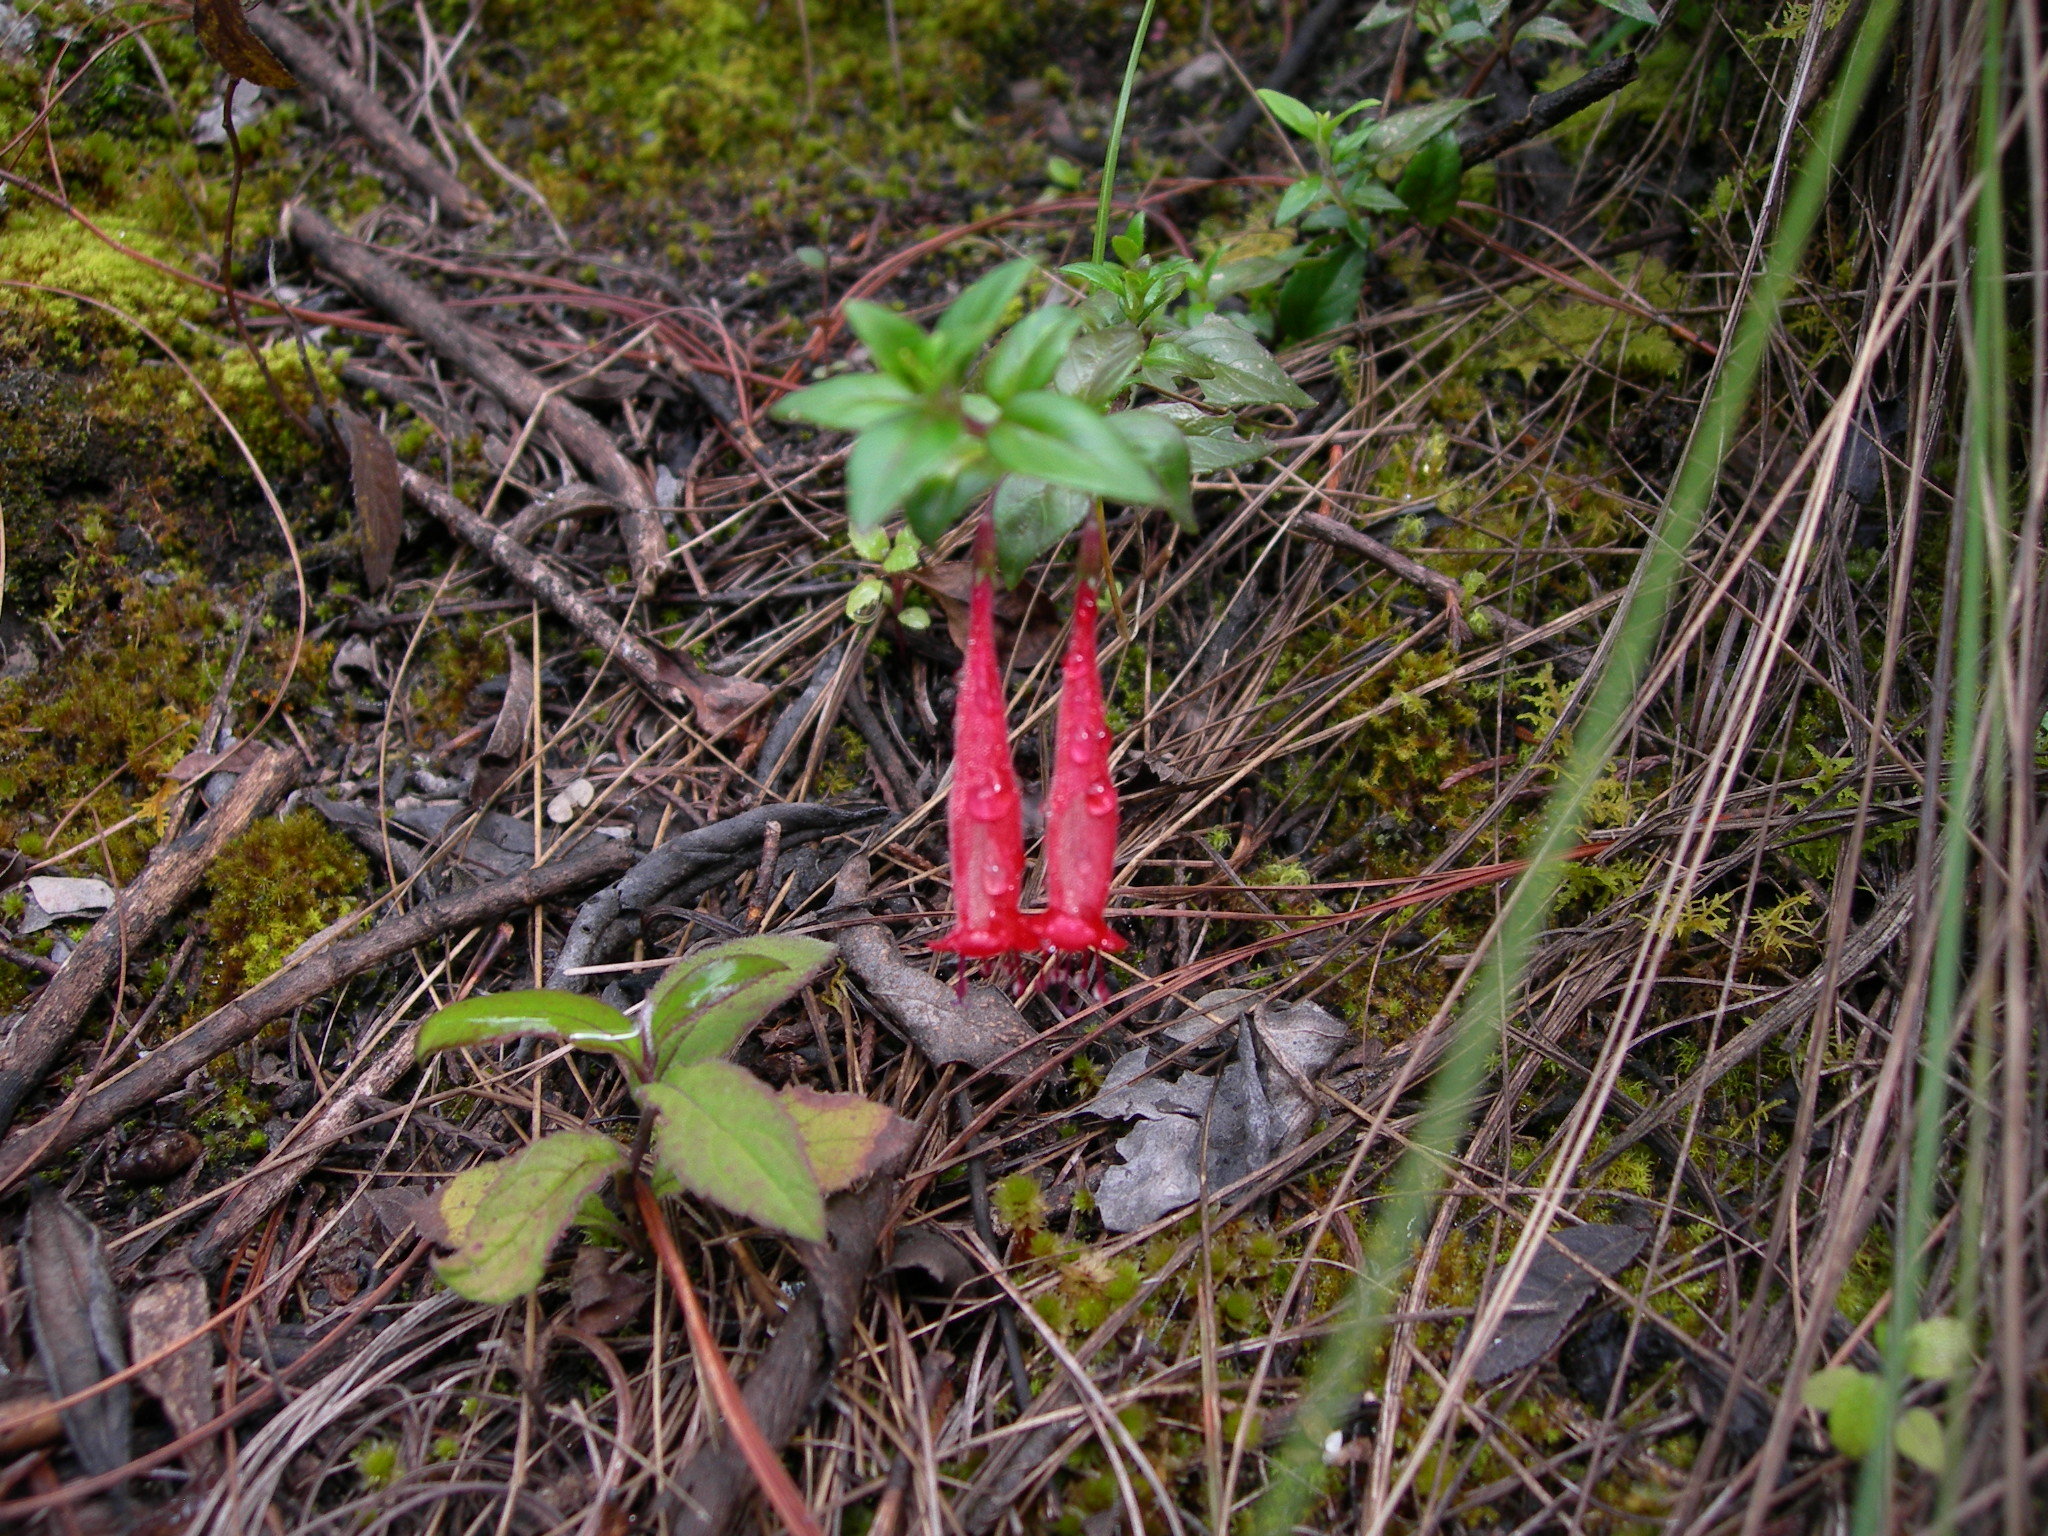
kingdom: Plantae
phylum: Tracheophyta
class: Magnoliopsida
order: Lamiales
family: Lamiaceae
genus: Clinopodium
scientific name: Clinopodium selerianum
